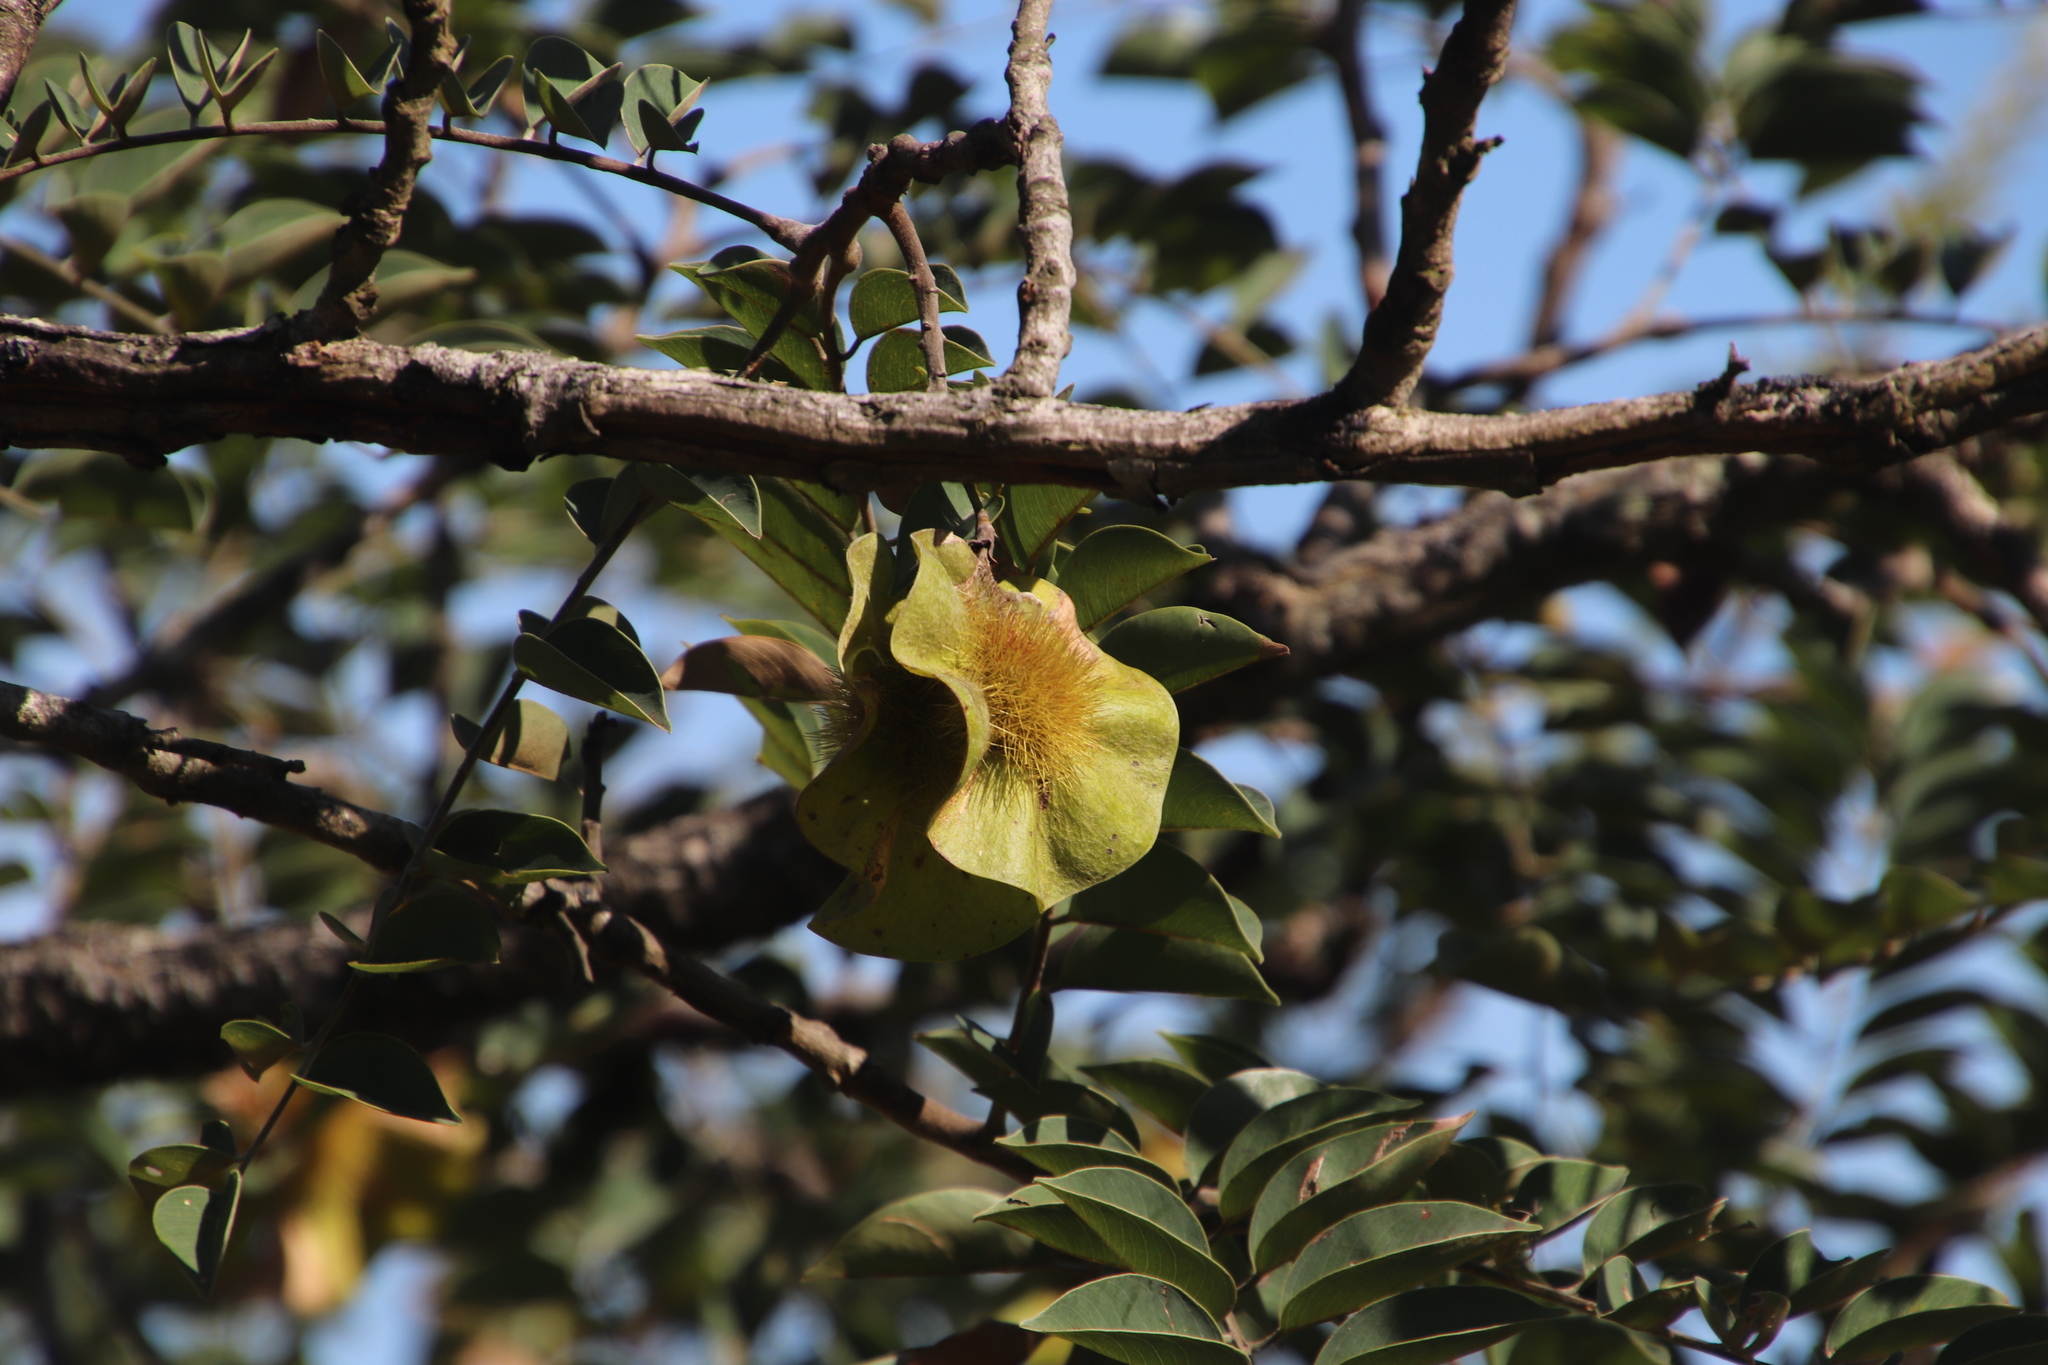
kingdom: Plantae
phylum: Tracheophyta
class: Magnoliopsida
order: Fabales
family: Fabaceae
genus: Pterocarpus
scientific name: Pterocarpus angolensis
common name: Bloodwood tree
